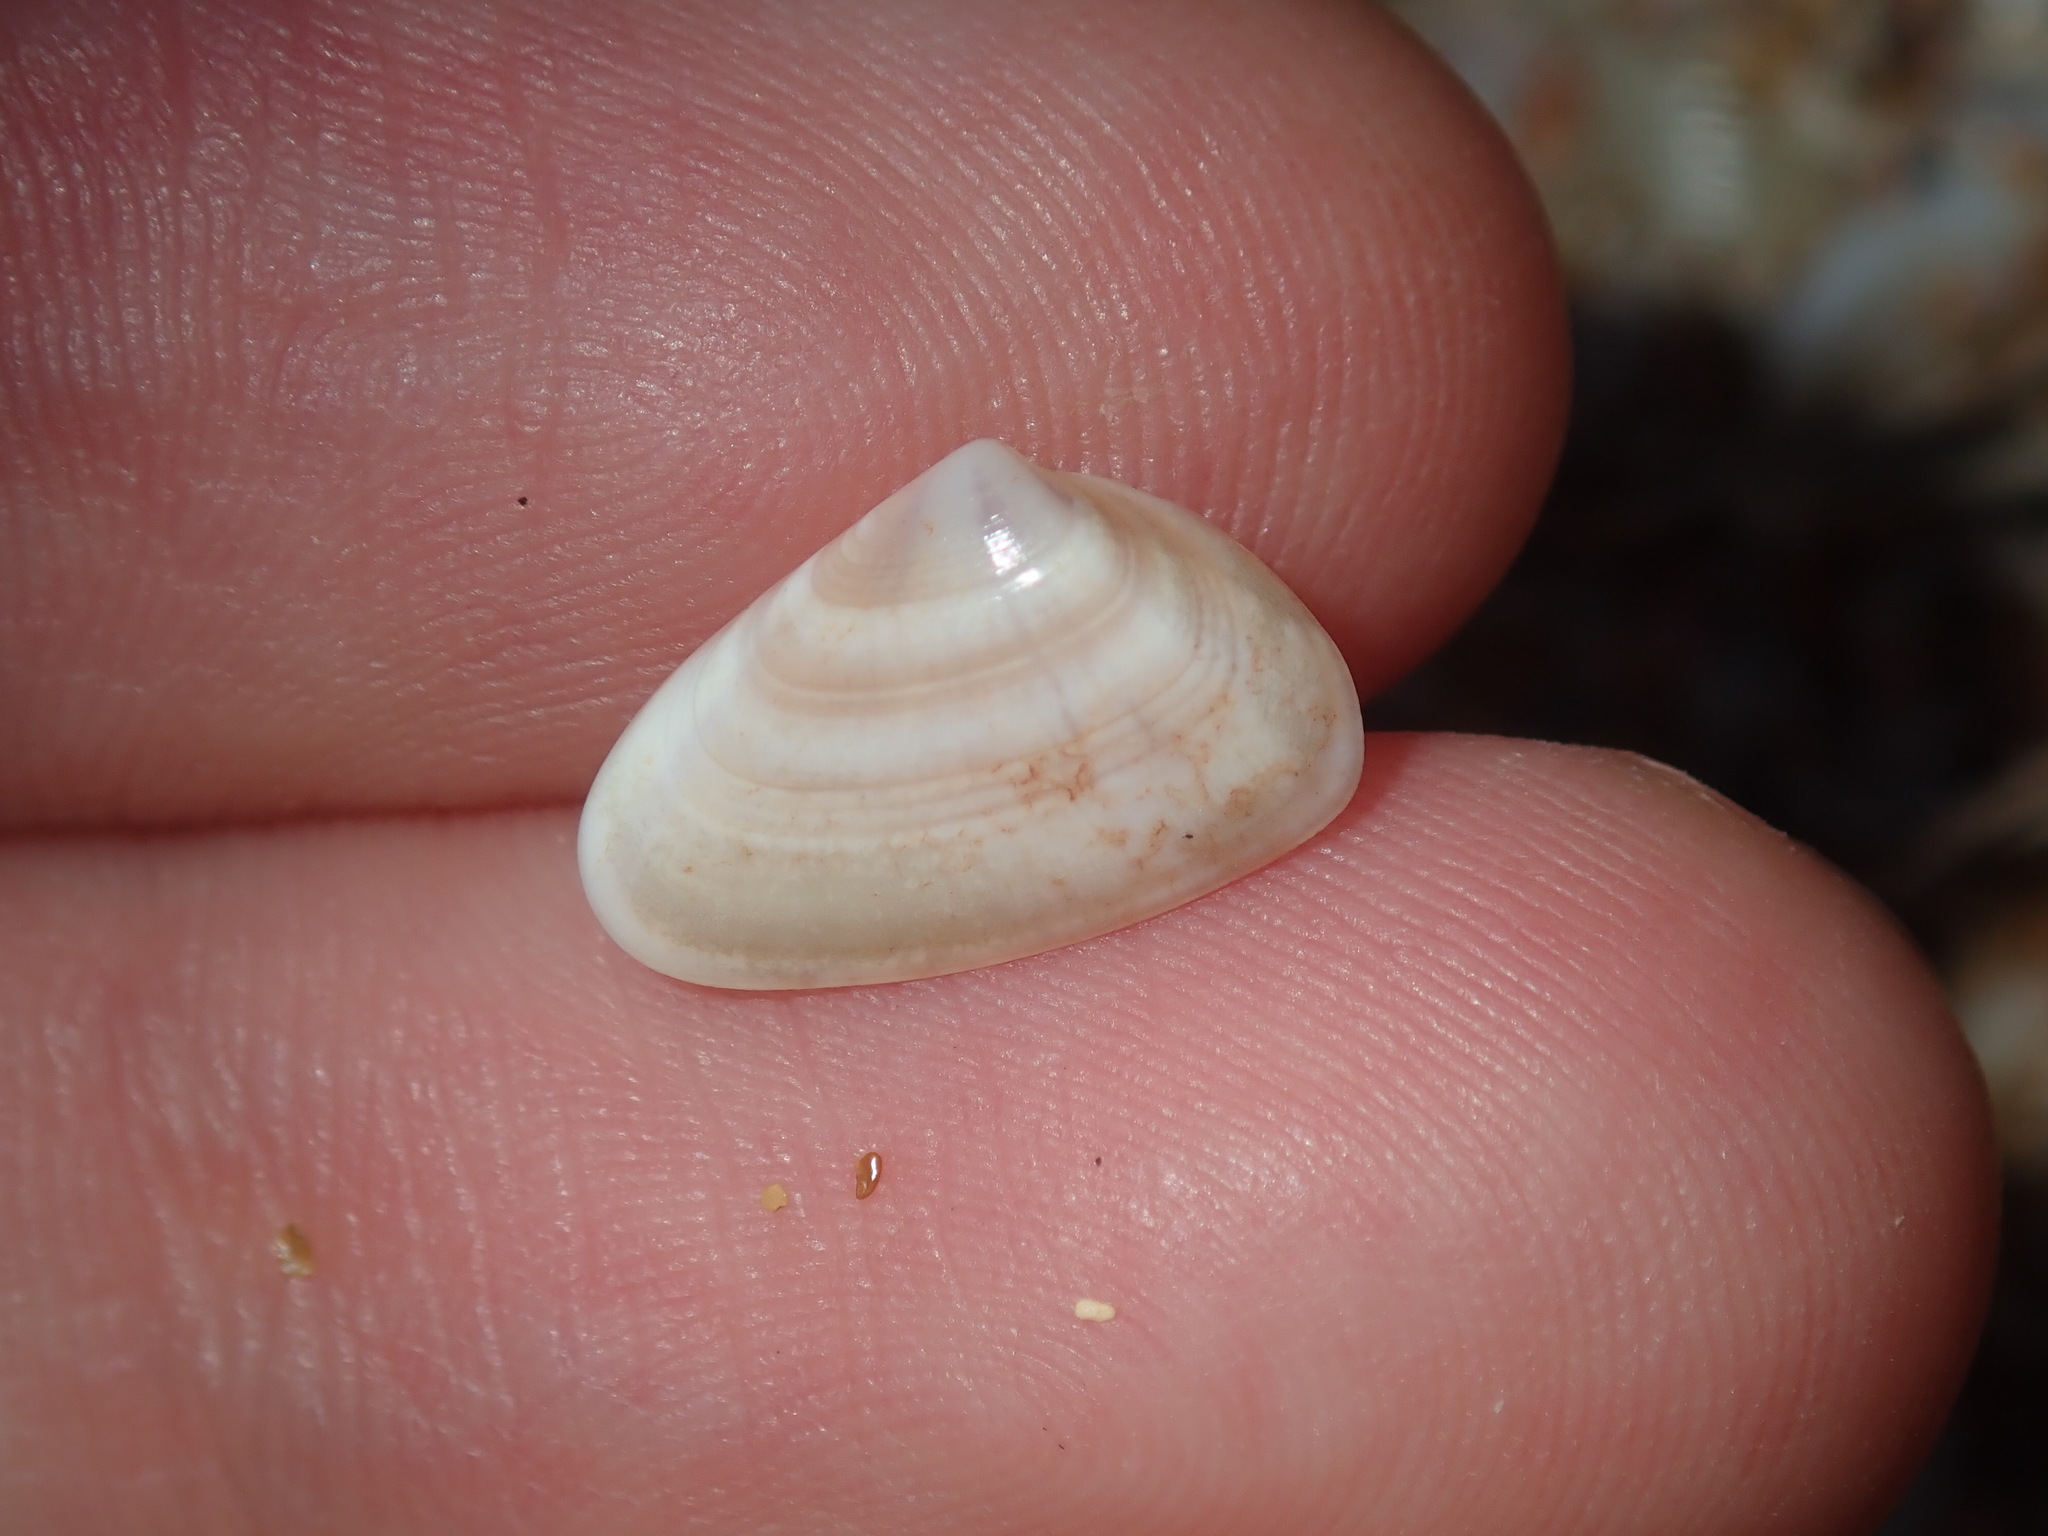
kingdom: Animalia
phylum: Mollusca
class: Bivalvia
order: Cardiida
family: Donacidae
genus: Latona
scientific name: Latona deltoides
